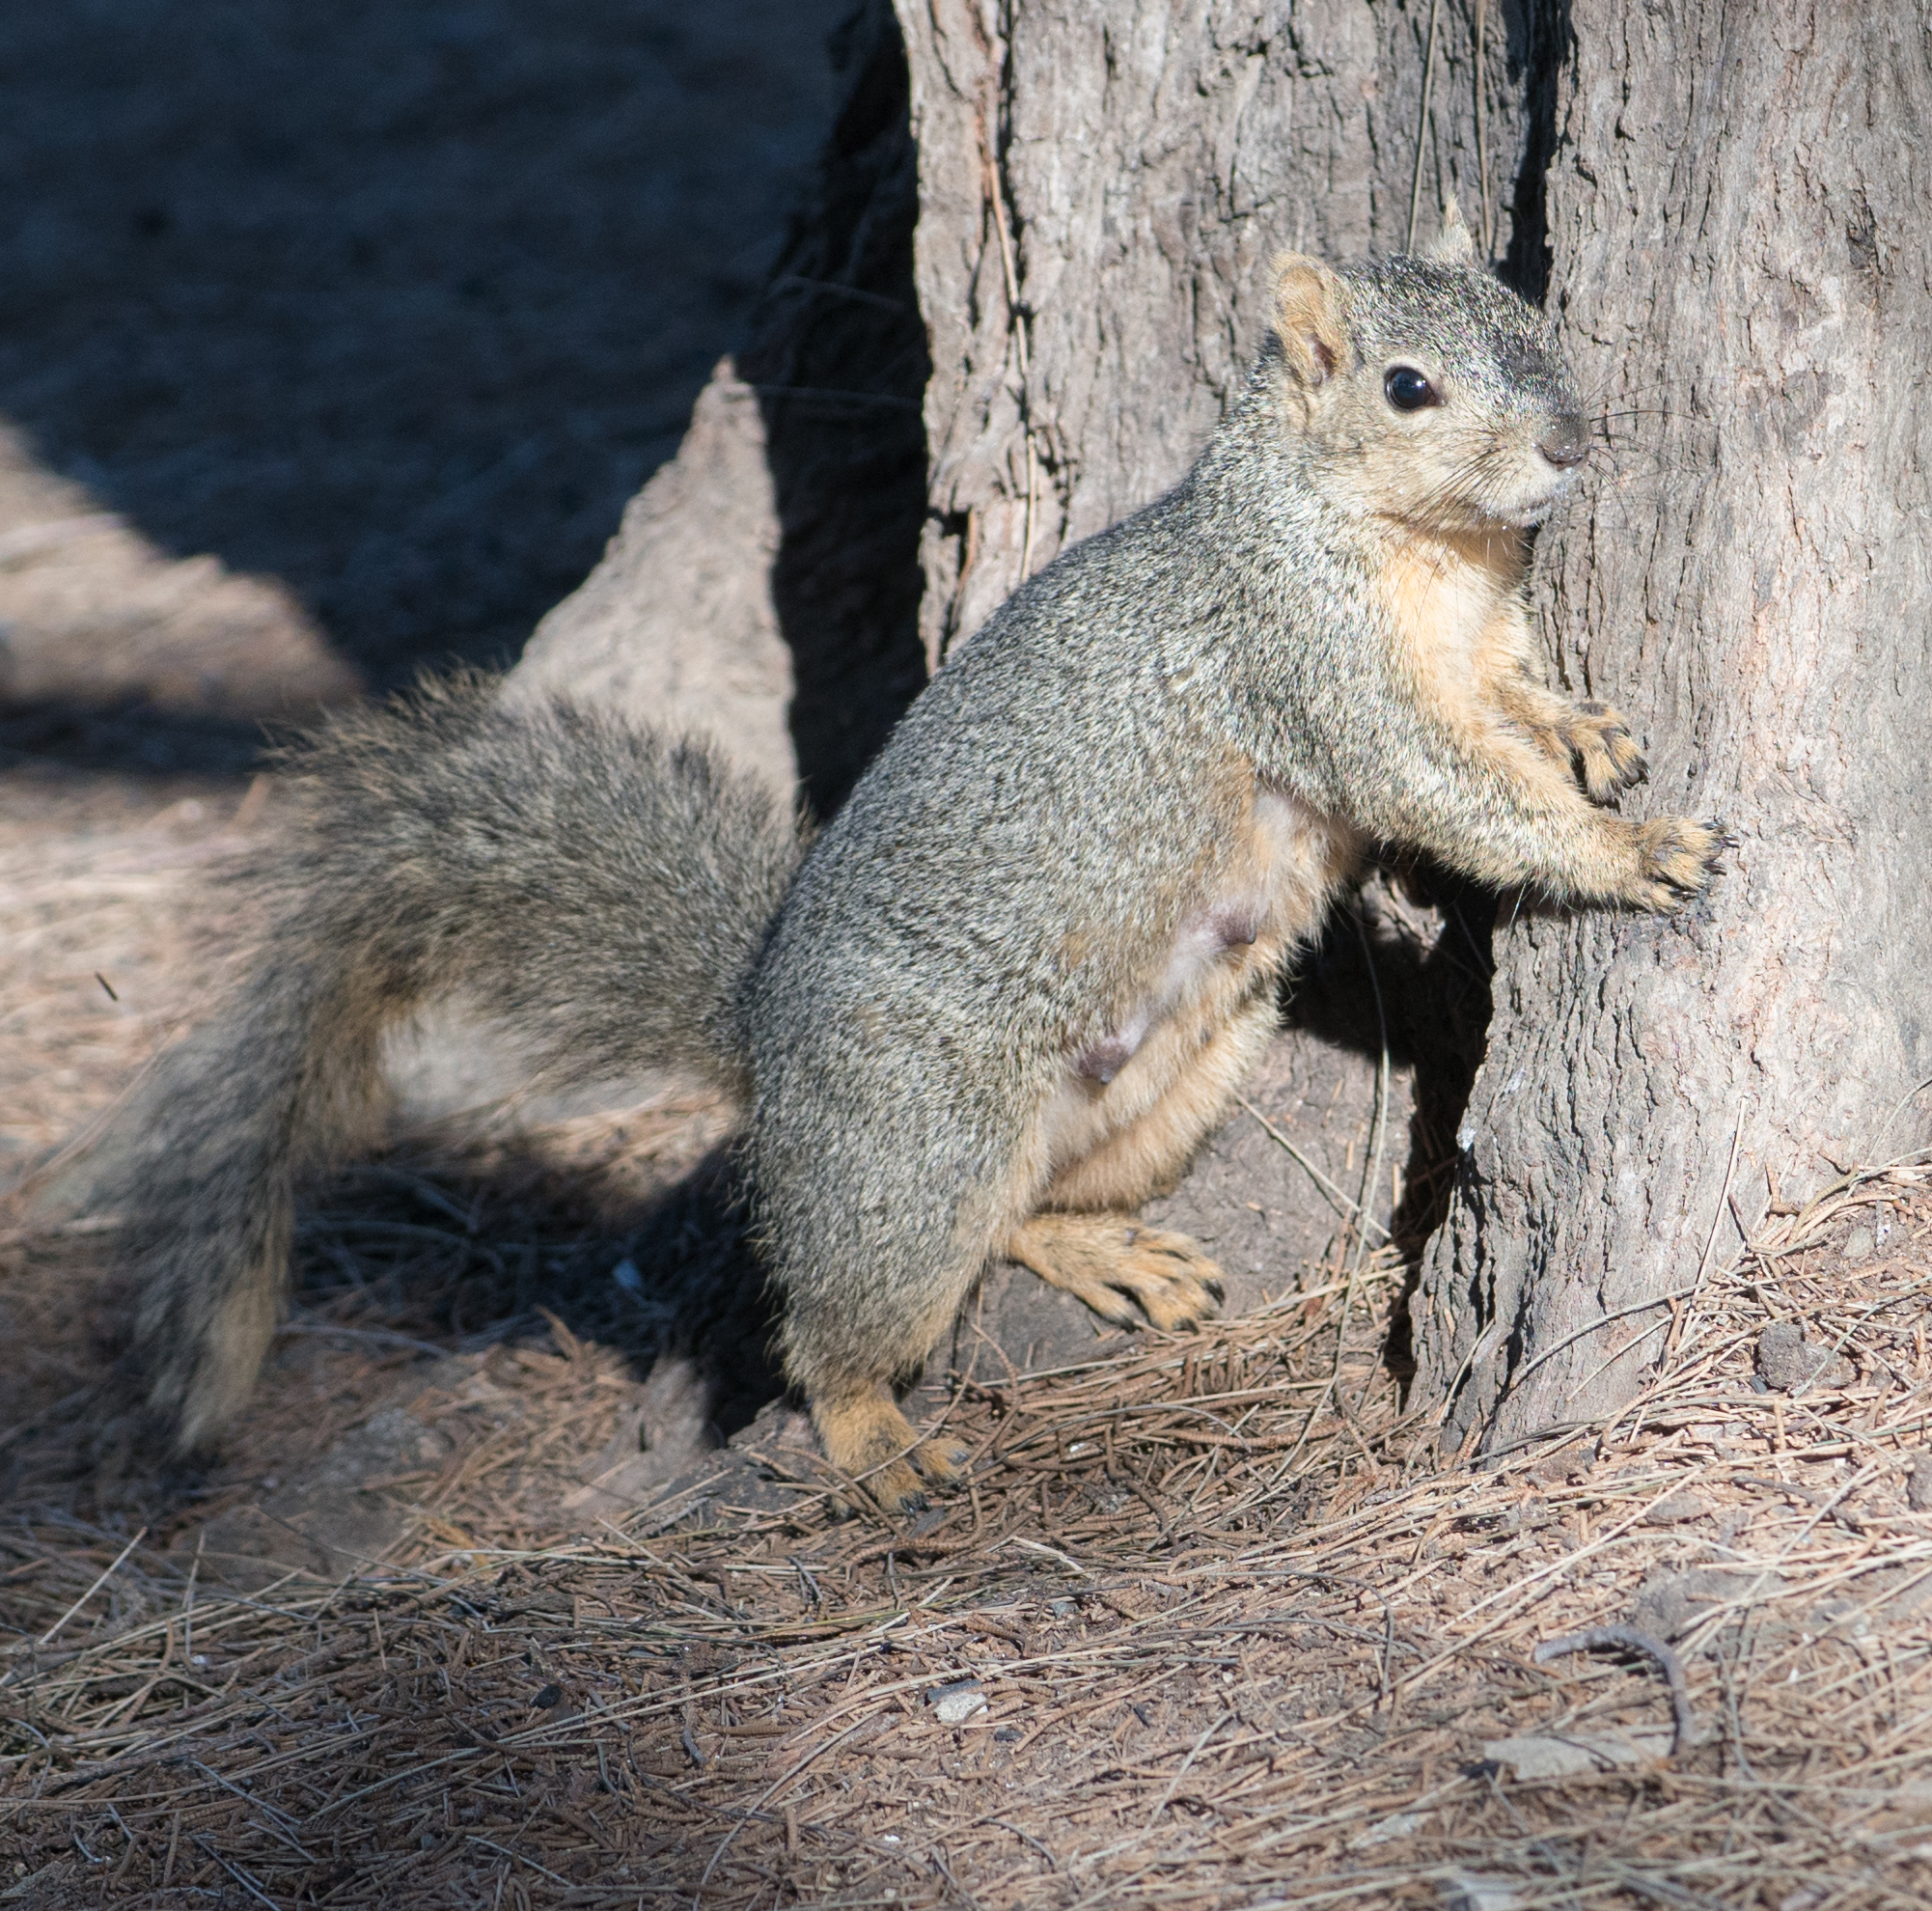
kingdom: Animalia
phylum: Chordata
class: Mammalia
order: Rodentia
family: Sciuridae
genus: Sciurus
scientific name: Sciurus niger
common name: Fox squirrel
